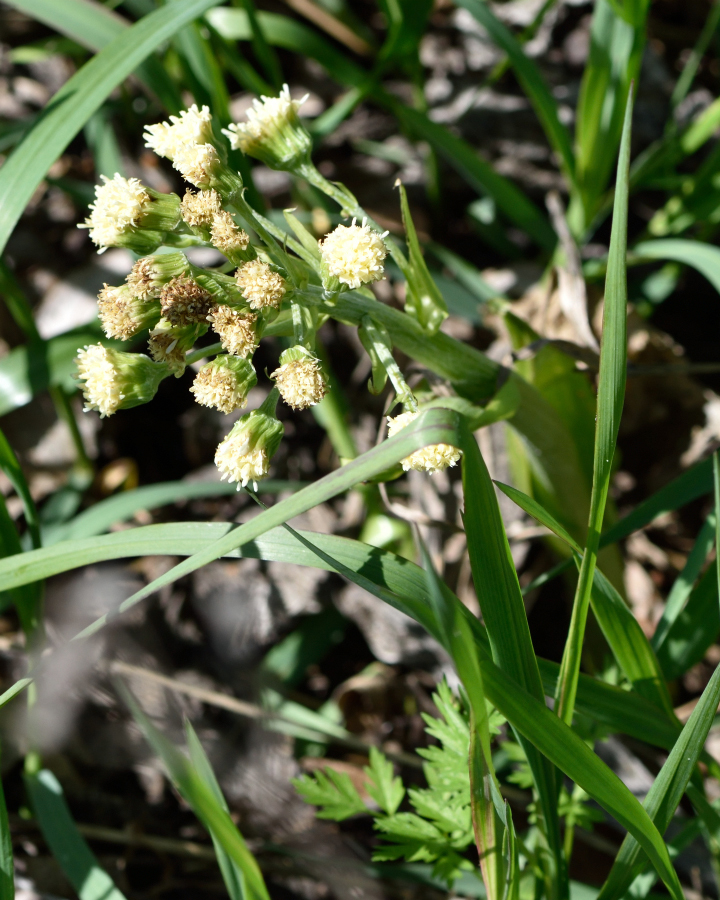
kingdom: Plantae
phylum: Tracheophyta
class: Magnoliopsida
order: Asterales
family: Asteraceae
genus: Petasites
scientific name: Petasites spurius
